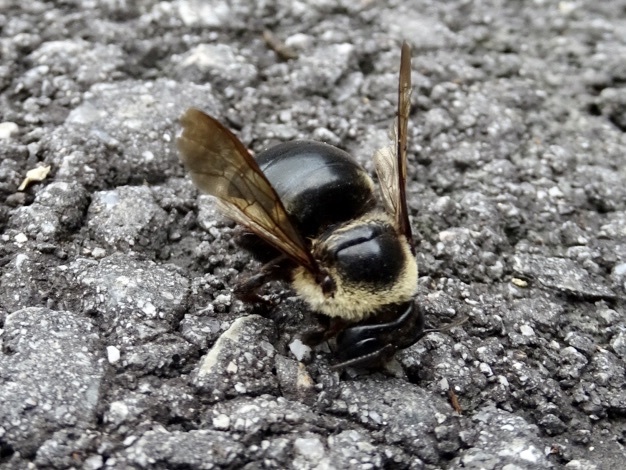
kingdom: Animalia
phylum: Arthropoda
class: Insecta
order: Hymenoptera
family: Apidae
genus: Xylocopa
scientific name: Xylocopa dejeanii
